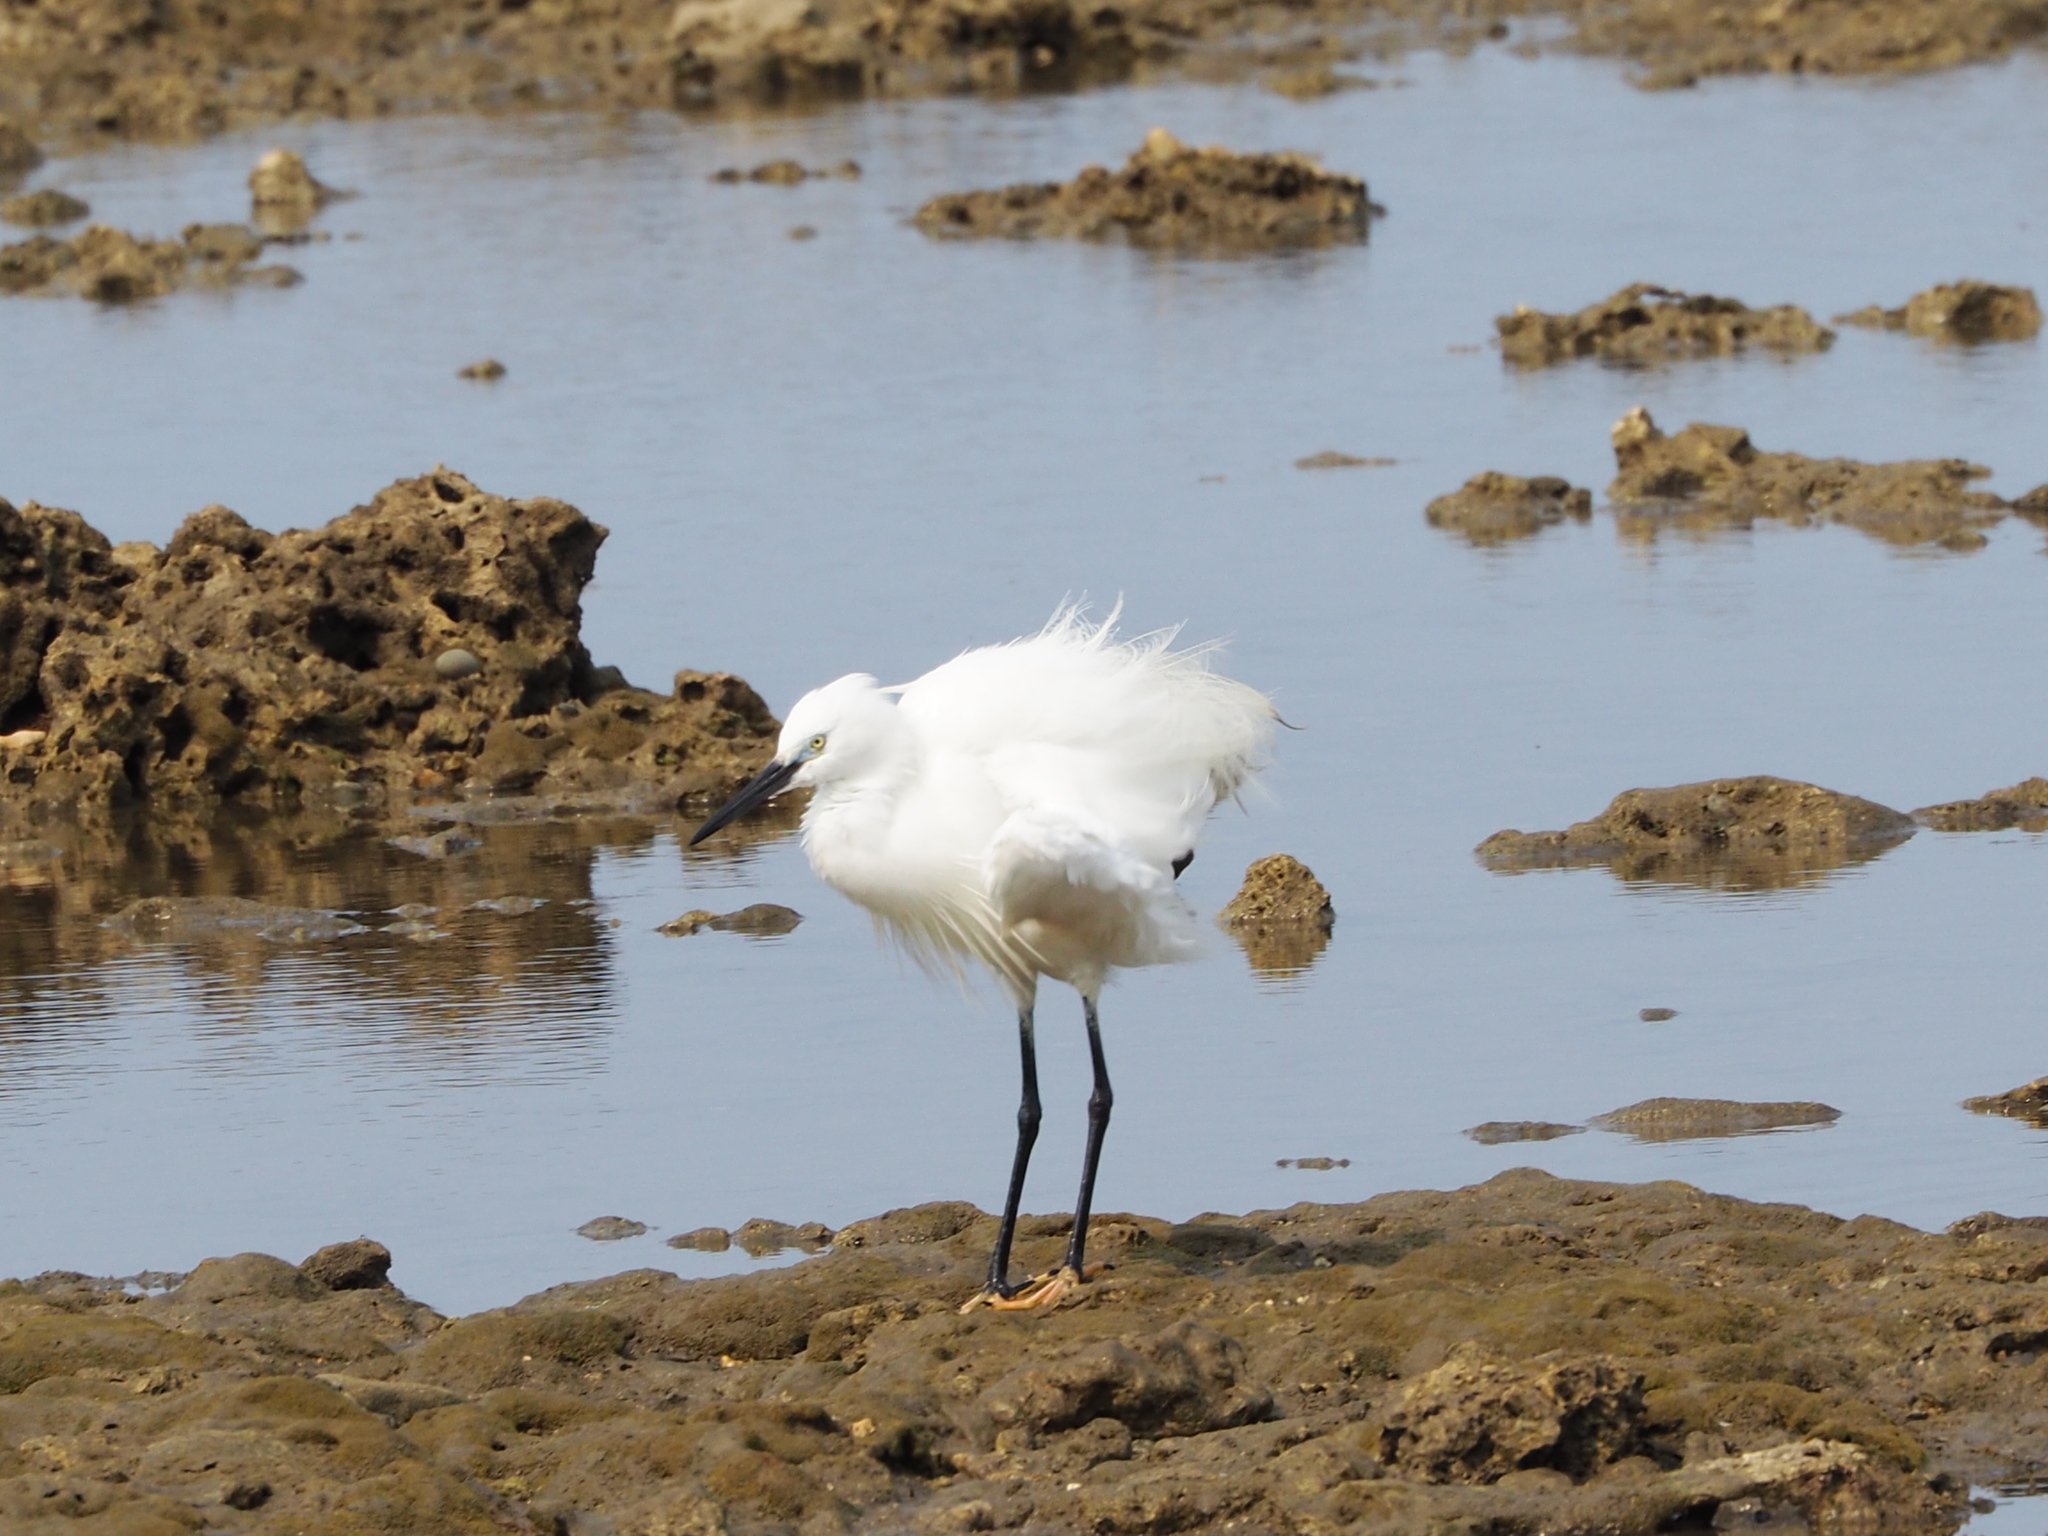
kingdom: Animalia
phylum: Chordata
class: Aves
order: Pelecaniformes
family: Ardeidae
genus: Egretta
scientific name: Egretta garzetta
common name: Little egret
